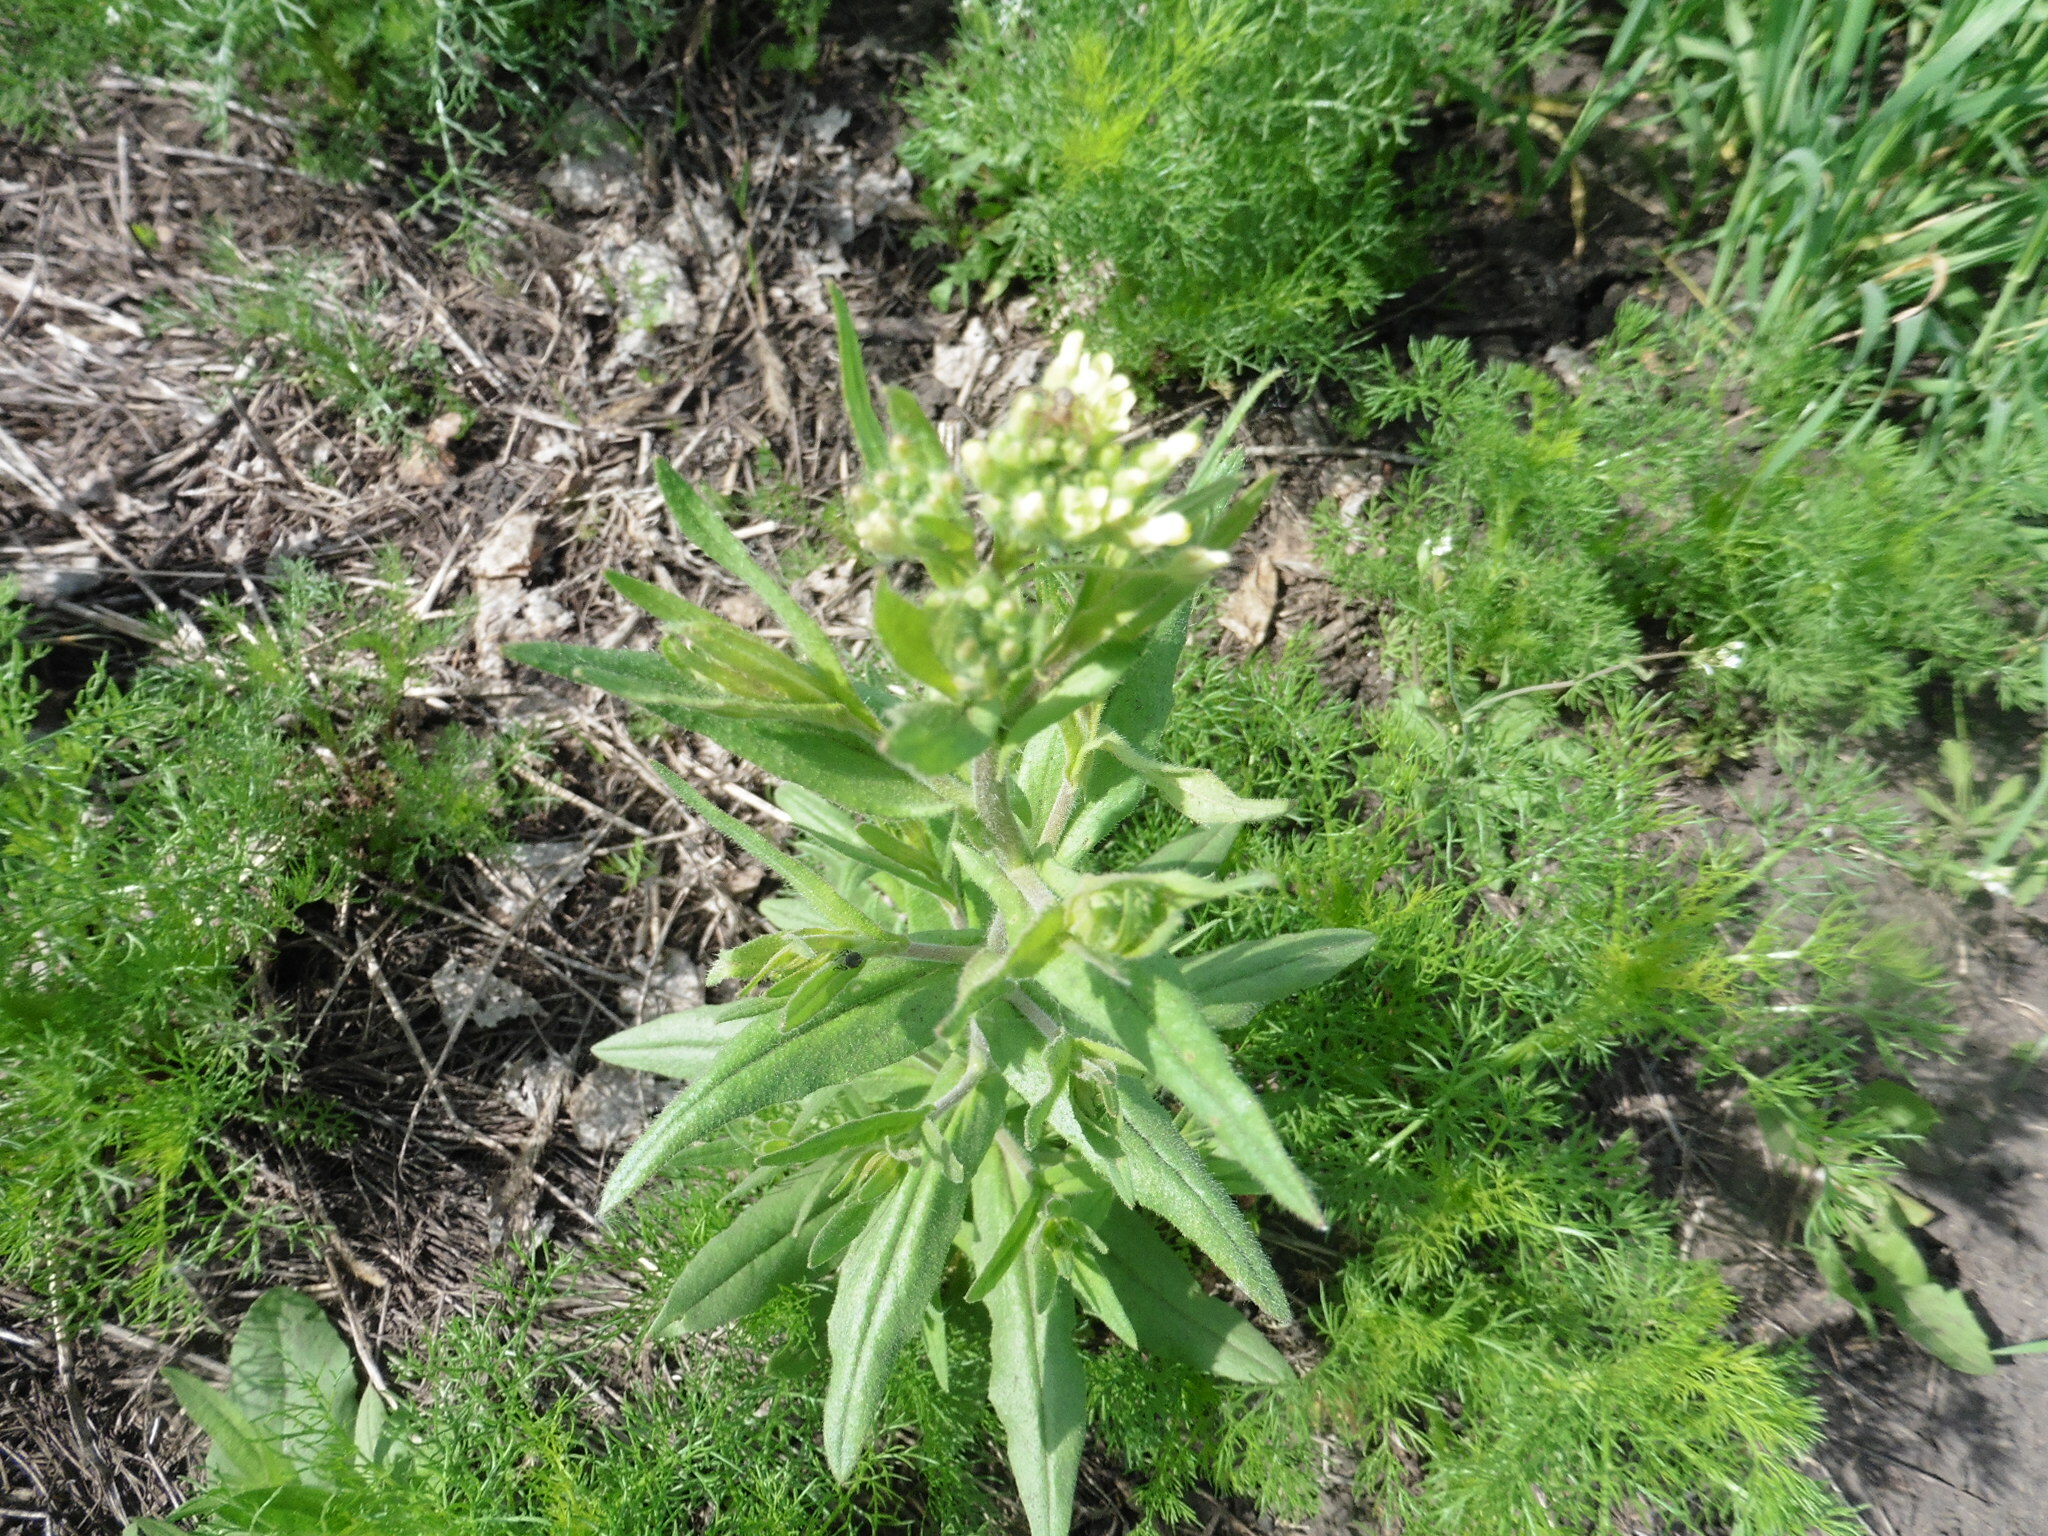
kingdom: Plantae
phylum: Tracheophyta
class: Magnoliopsida
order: Brassicales
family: Brassicaceae
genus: Camelina
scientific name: Camelina microcarpa
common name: Lesser gold-of-pleasure
